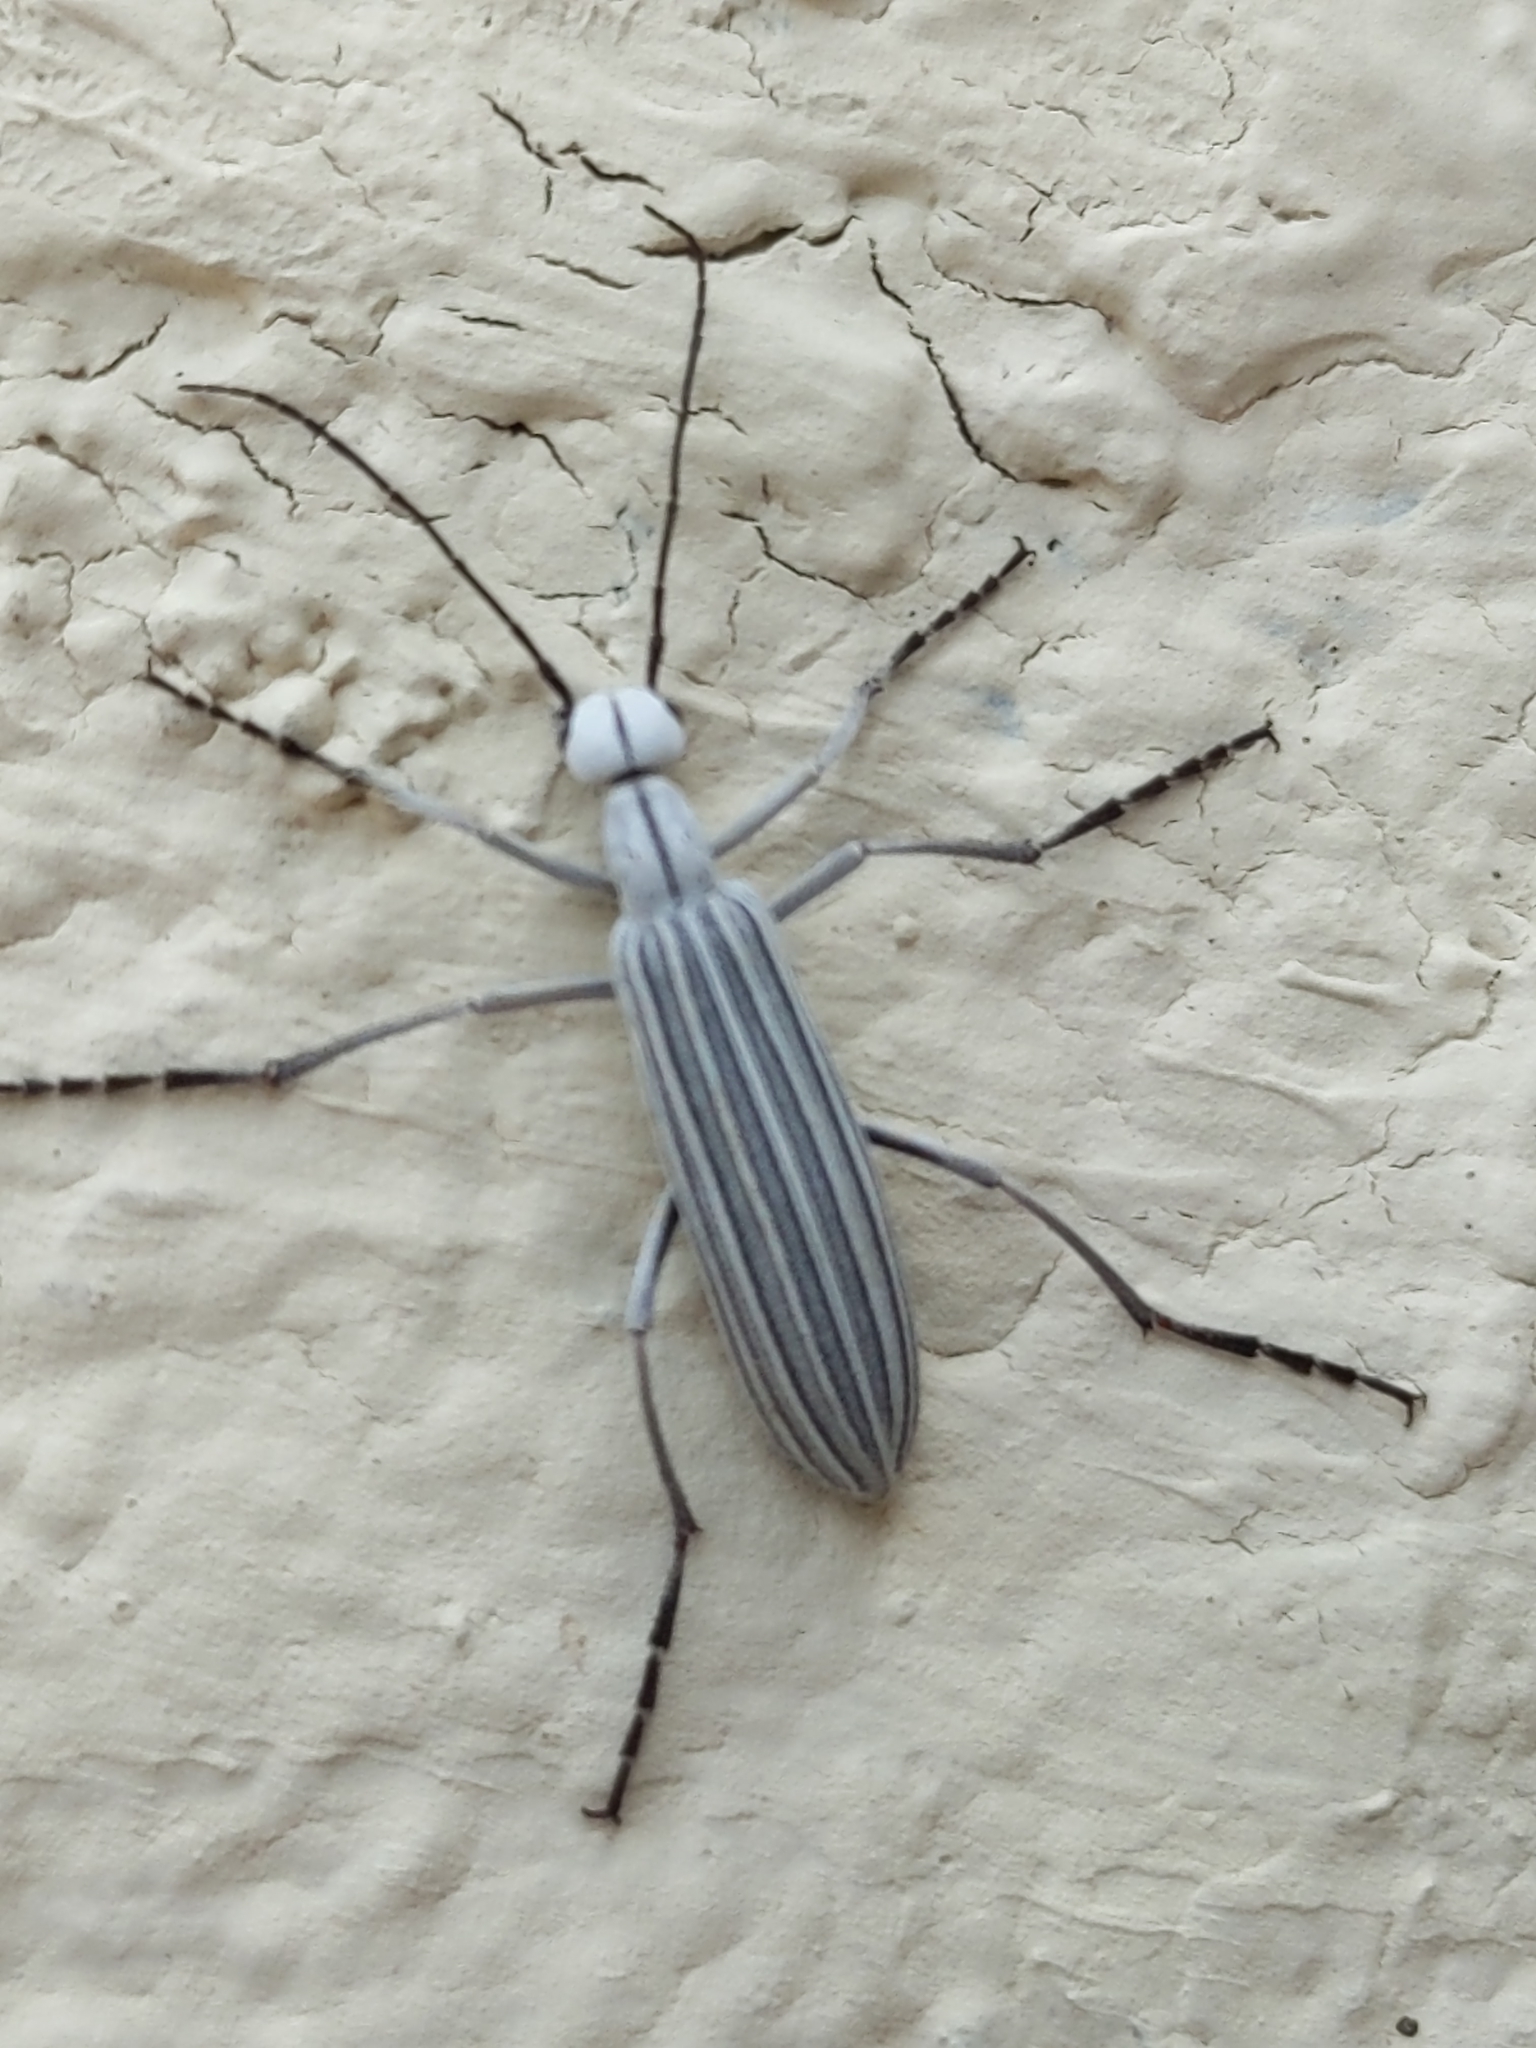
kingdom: Animalia
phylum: Arthropoda
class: Insecta
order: Coleoptera
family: Meloidae
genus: Epicauta
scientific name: Epicauta costata
